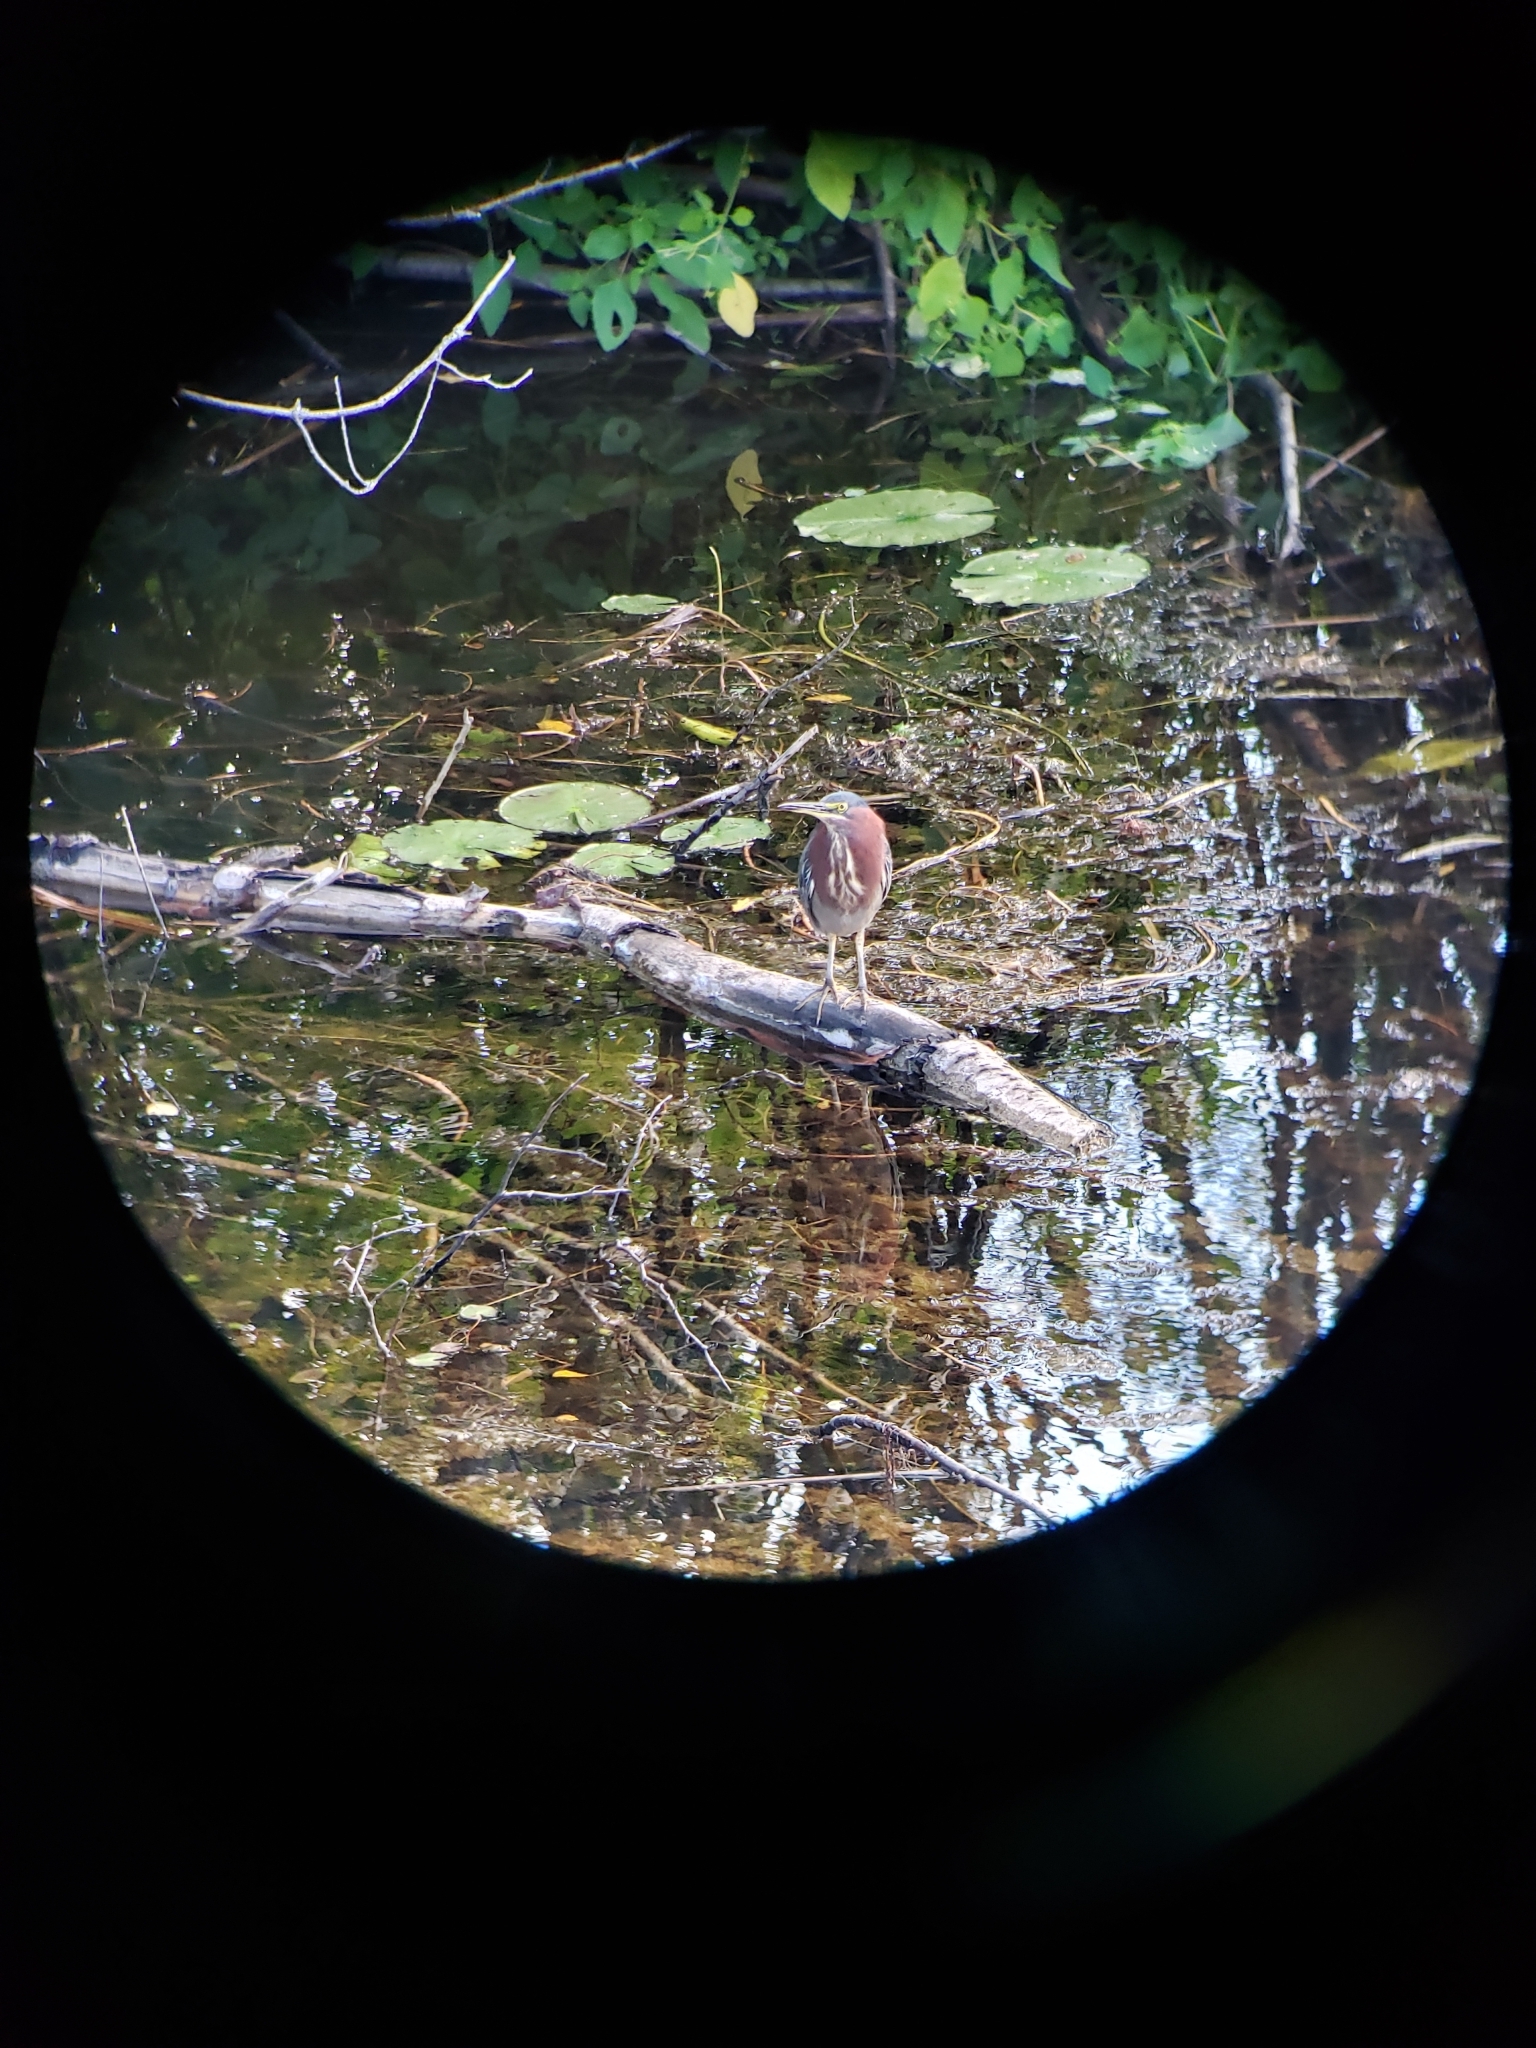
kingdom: Animalia
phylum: Chordata
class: Aves
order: Pelecaniformes
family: Ardeidae
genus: Butorides
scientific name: Butorides virescens
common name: Green heron
